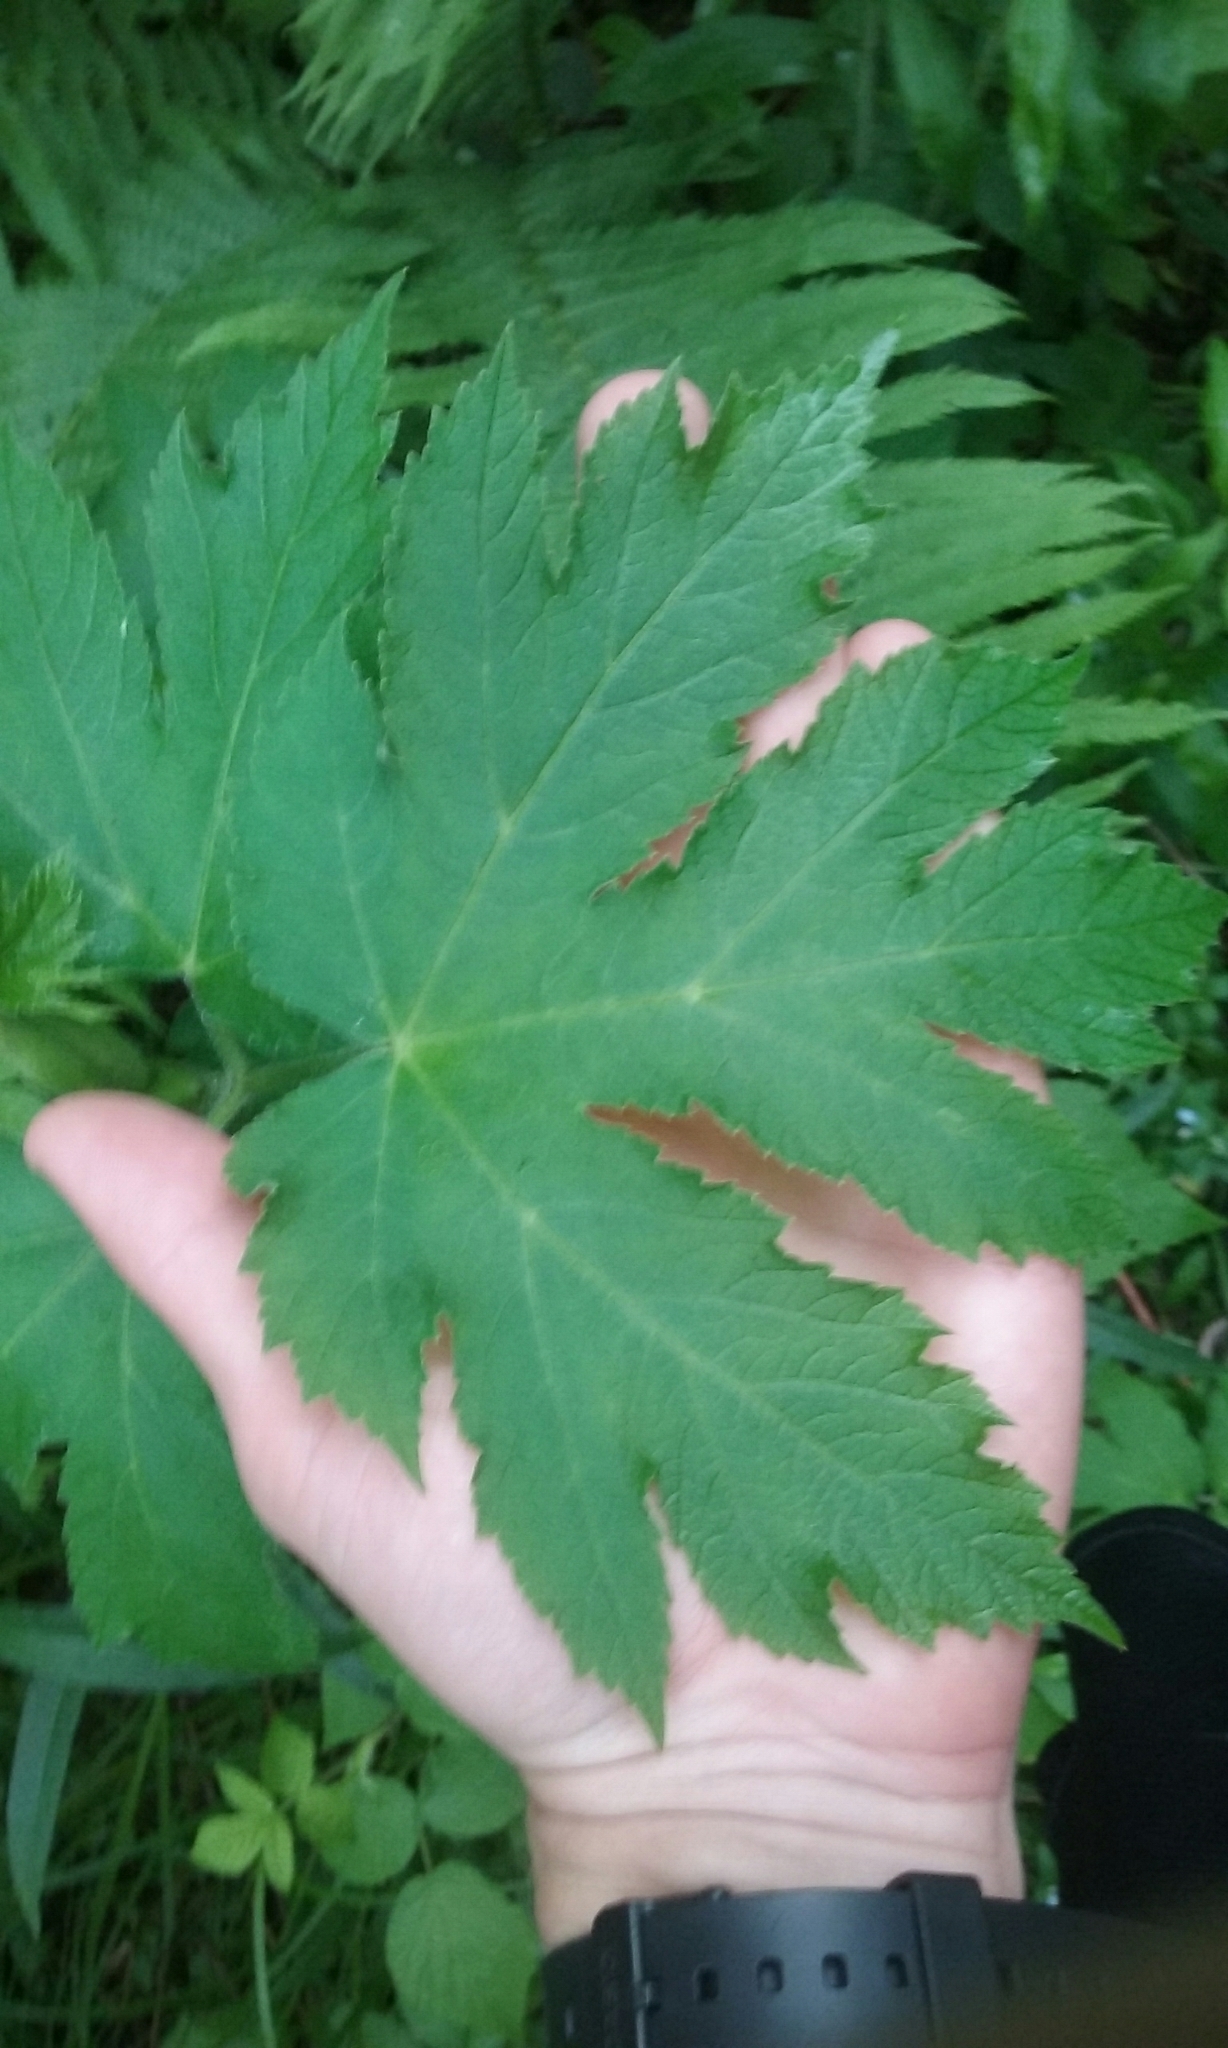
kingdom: Plantae
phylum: Tracheophyta
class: Magnoliopsida
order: Apiales
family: Apiaceae
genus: Heracleum
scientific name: Heracleum maximum
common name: American cow parsnip
